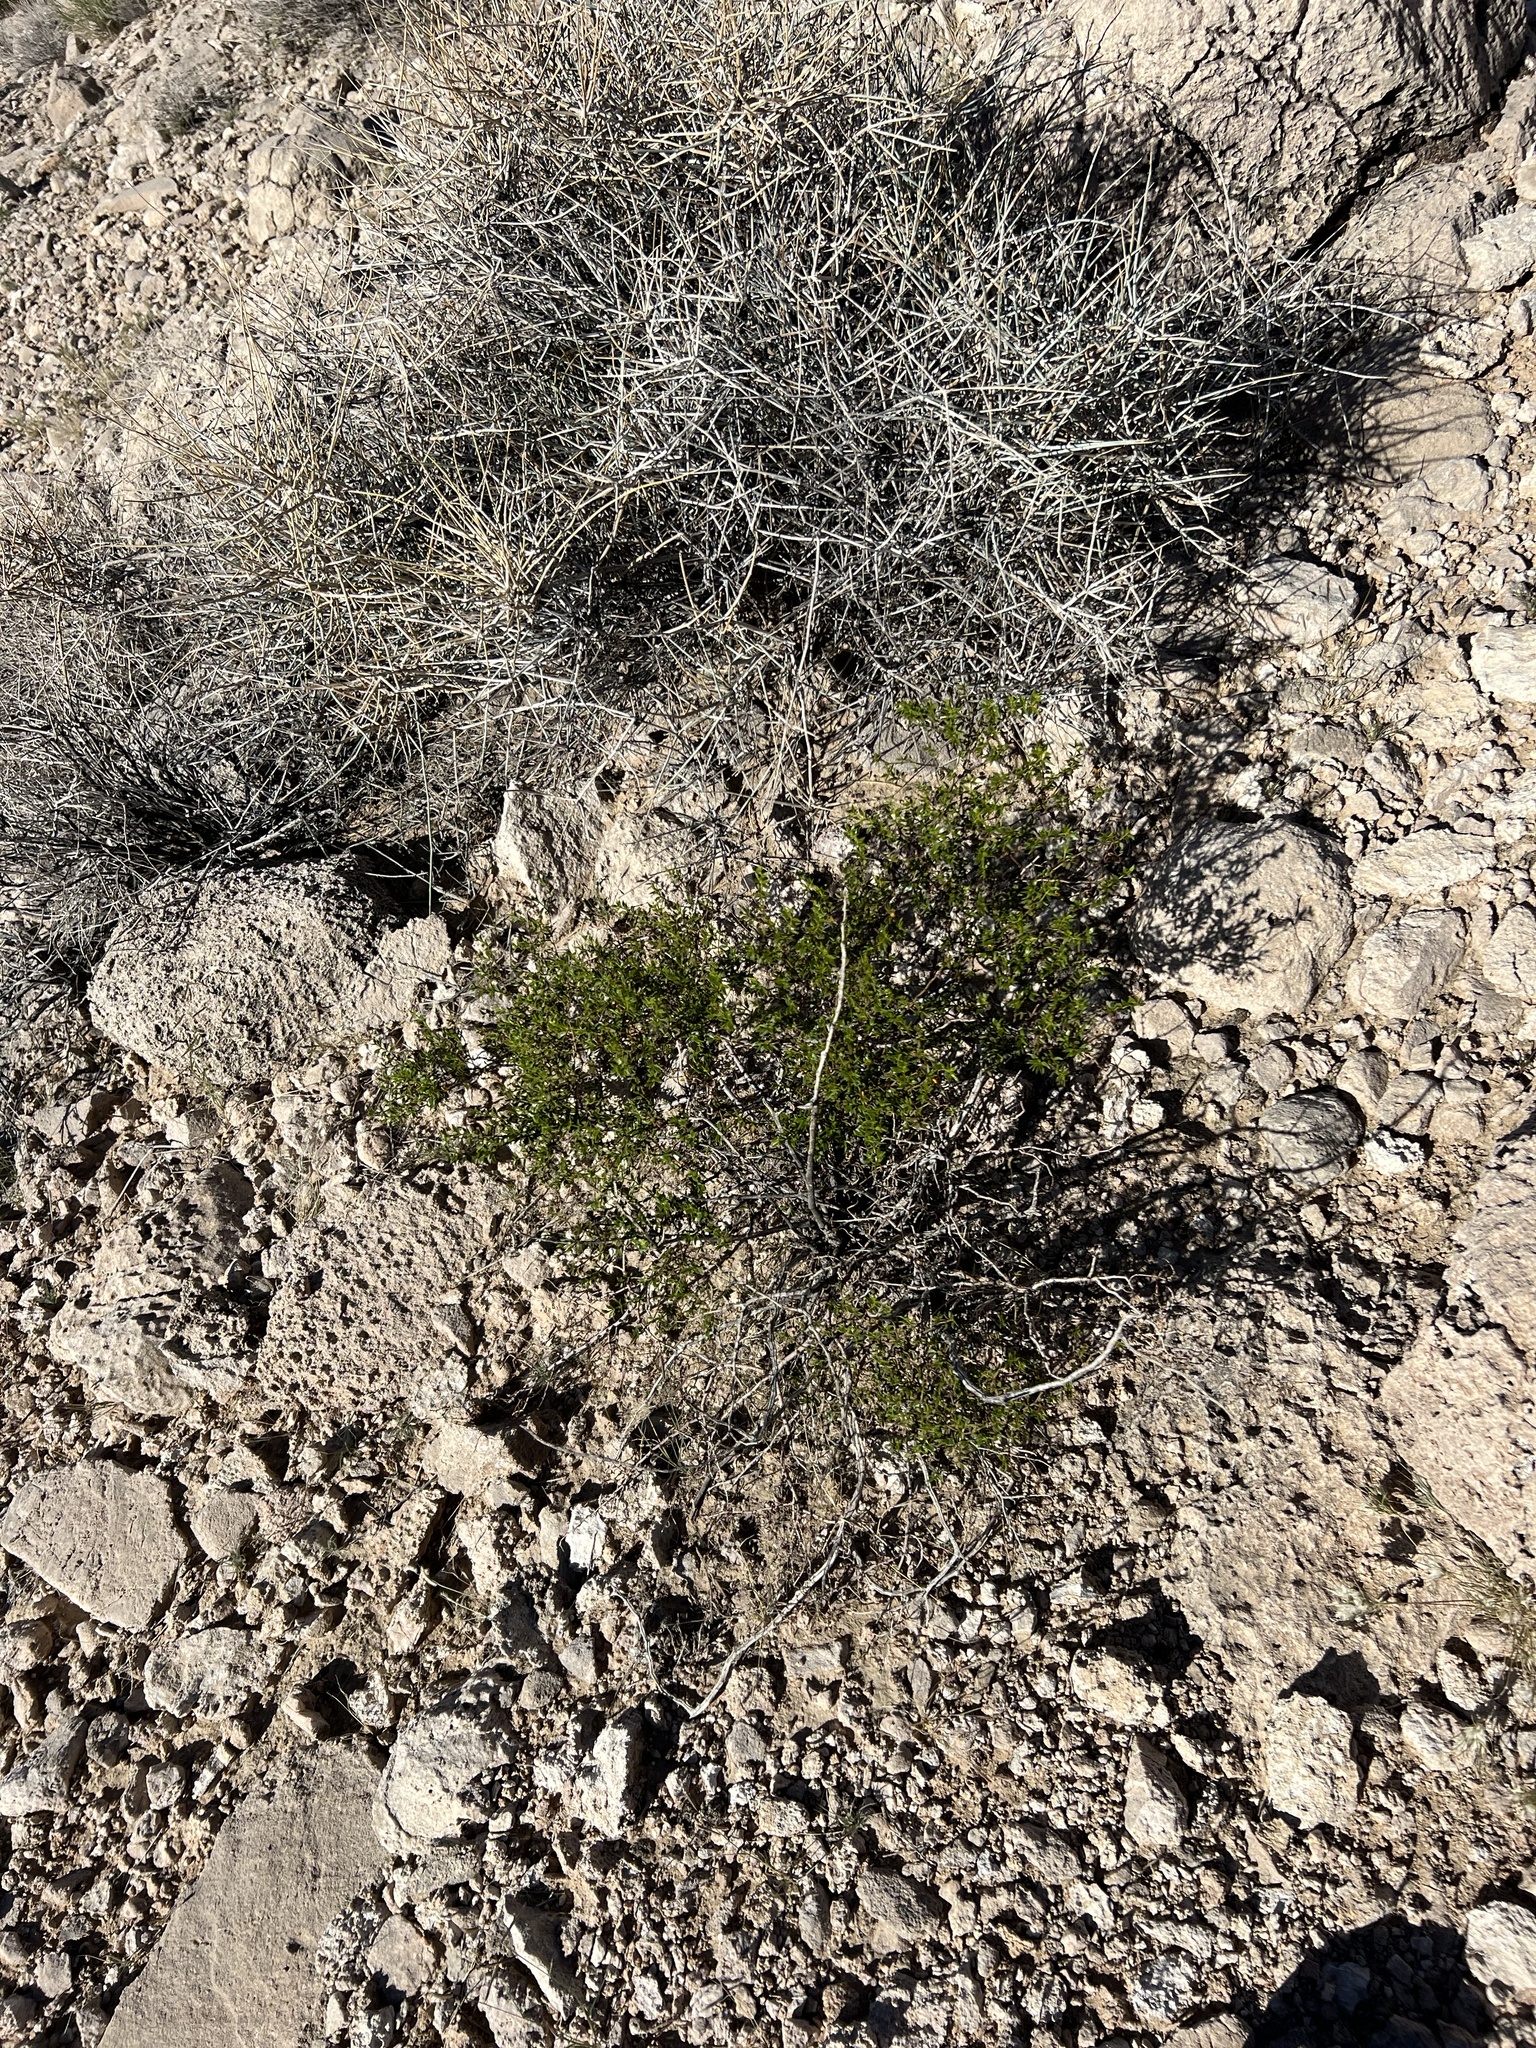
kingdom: Plantae
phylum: Tracheophyta
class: Magnoliopsida
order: Zygophyllales
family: Zygophyllaceae
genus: Larrea
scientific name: Larrea tridentata
